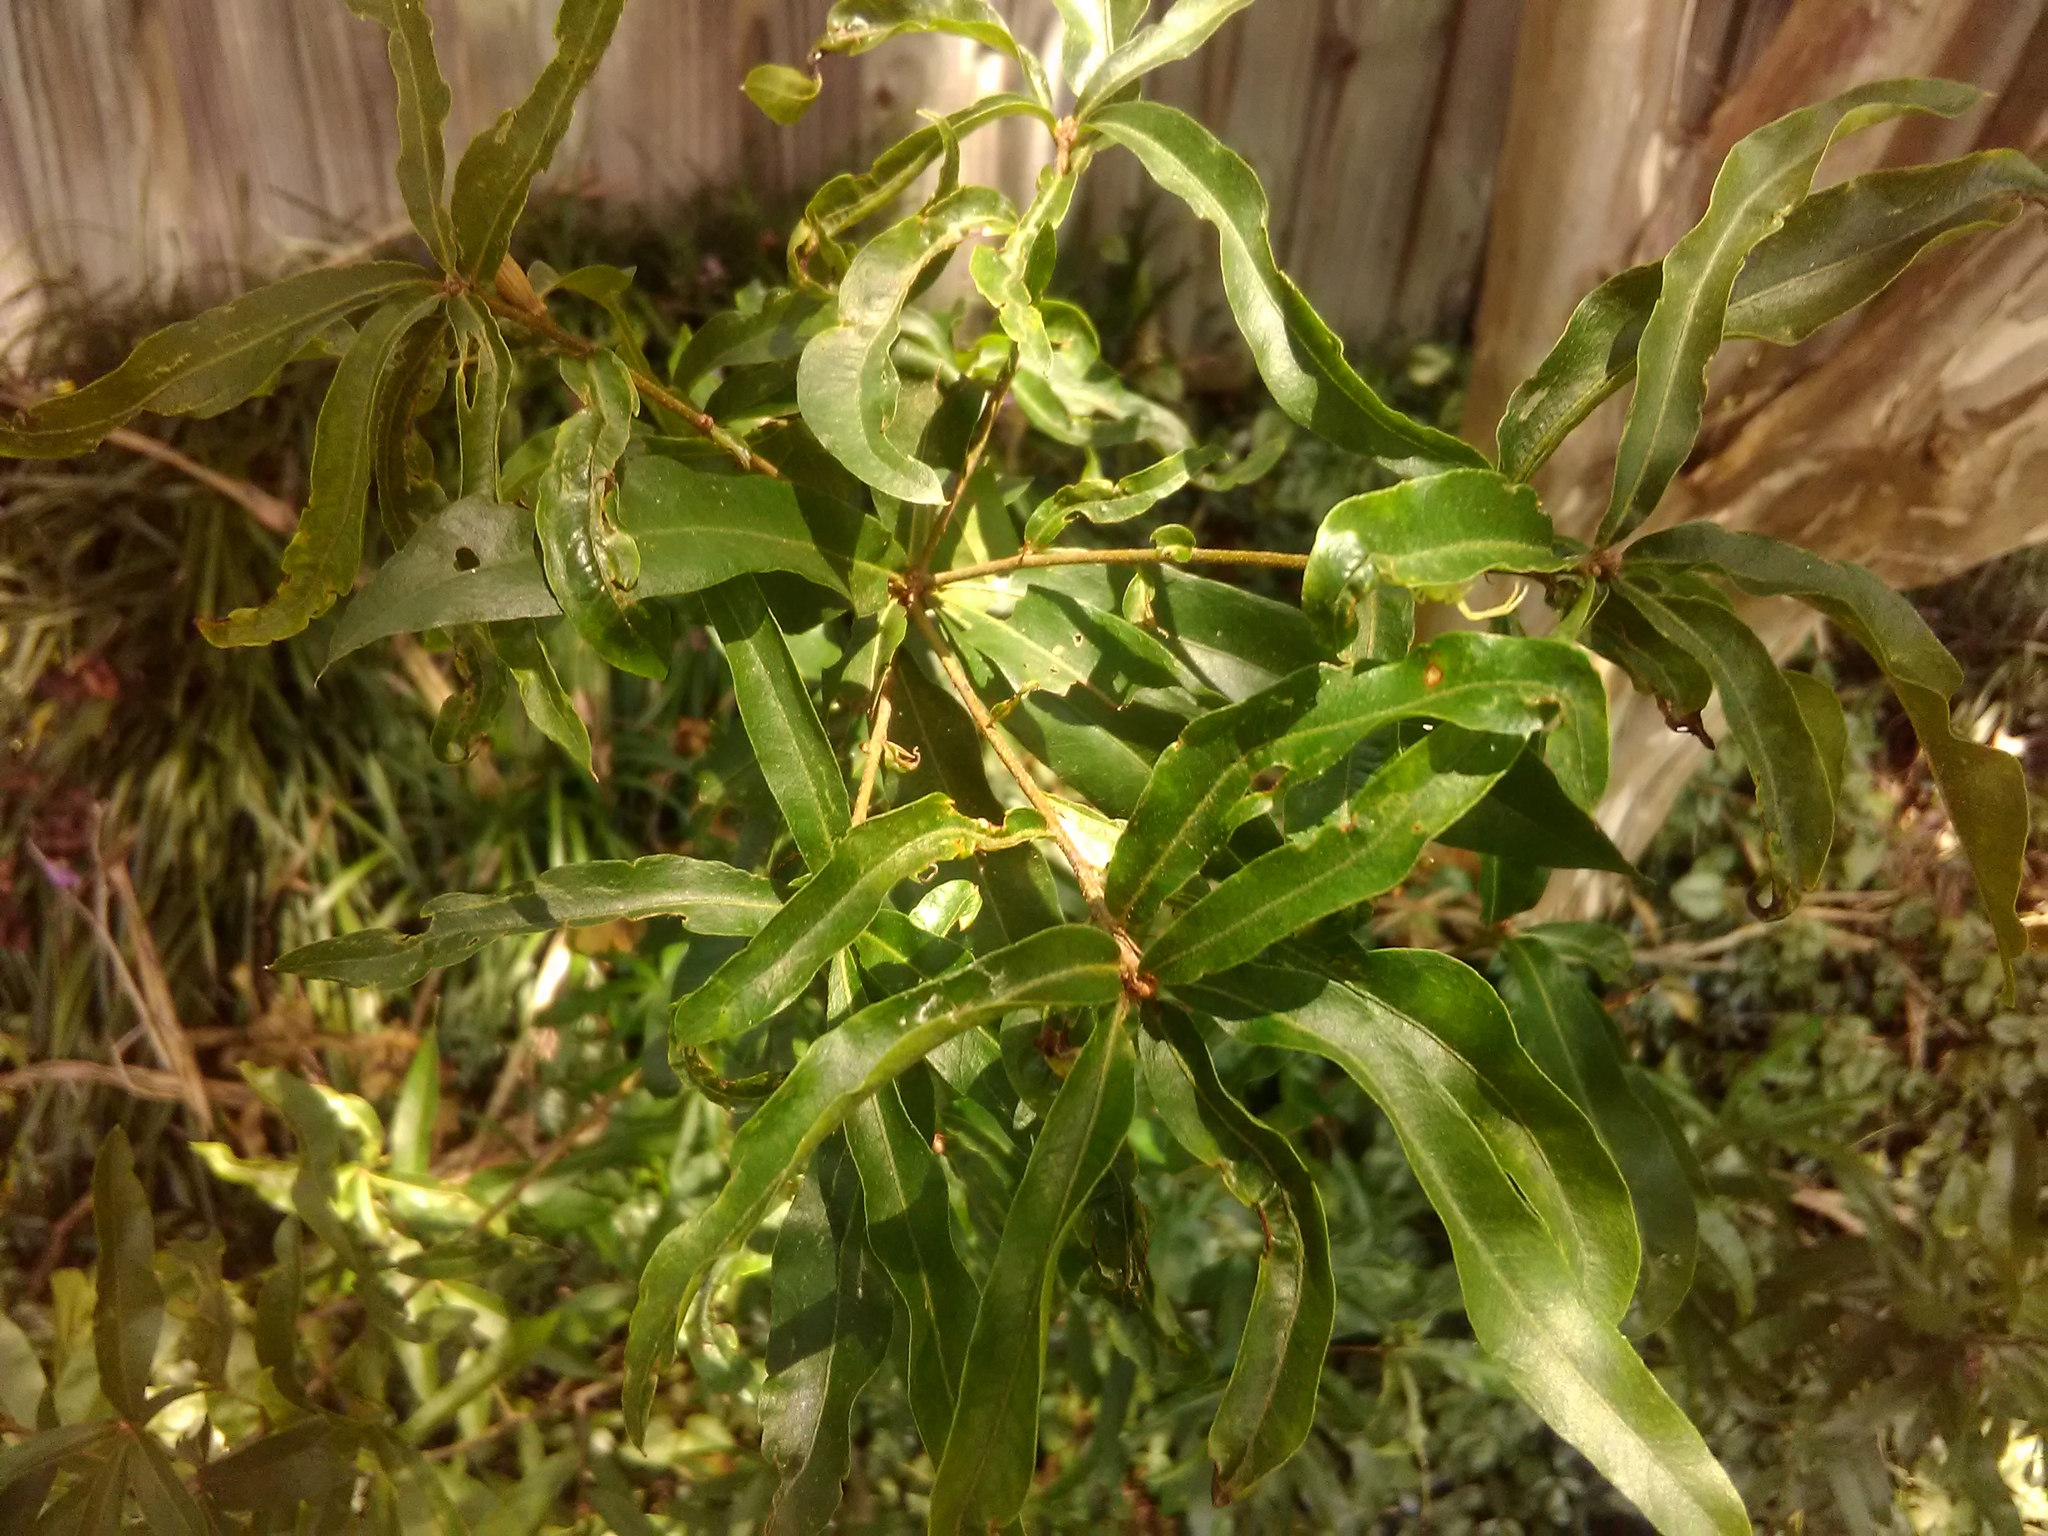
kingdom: Plantae
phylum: Tracheophyta
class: Magnoliopsida
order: Fagales
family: Fagaceae
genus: Quercus
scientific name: Quercus phellos
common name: Willow oak
